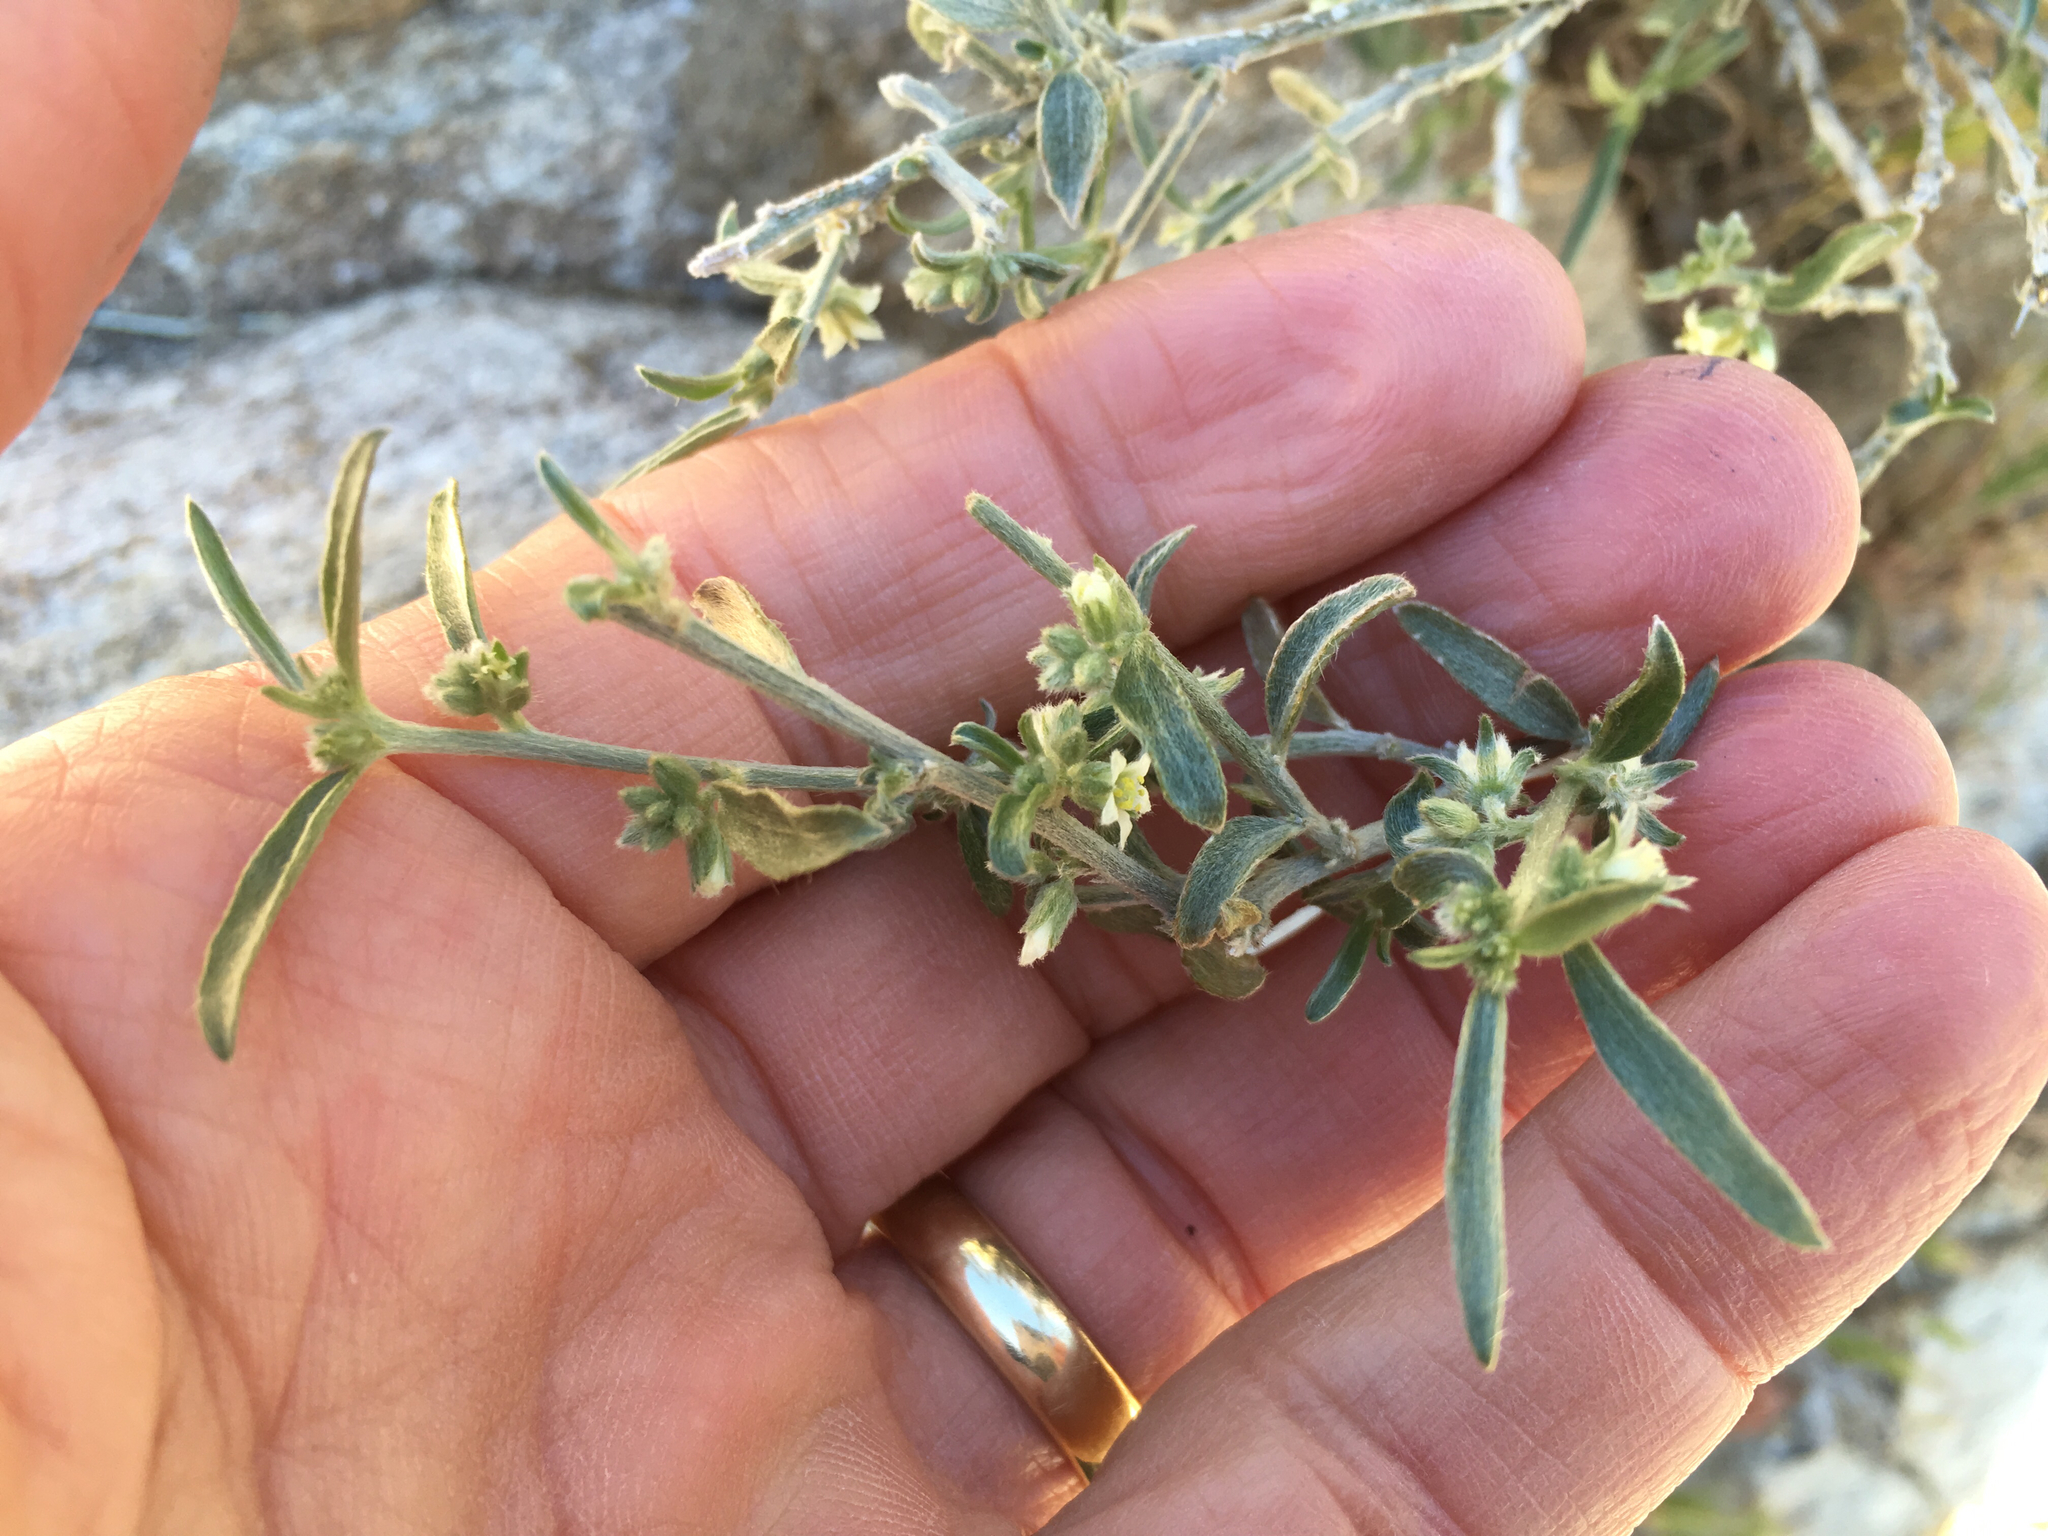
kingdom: Plantae
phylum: Tracheophyta
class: Magnoliopsida
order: Malpighiales
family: Euphorbiaceae
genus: Ditaxis
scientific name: Ditaxis lanceolata
